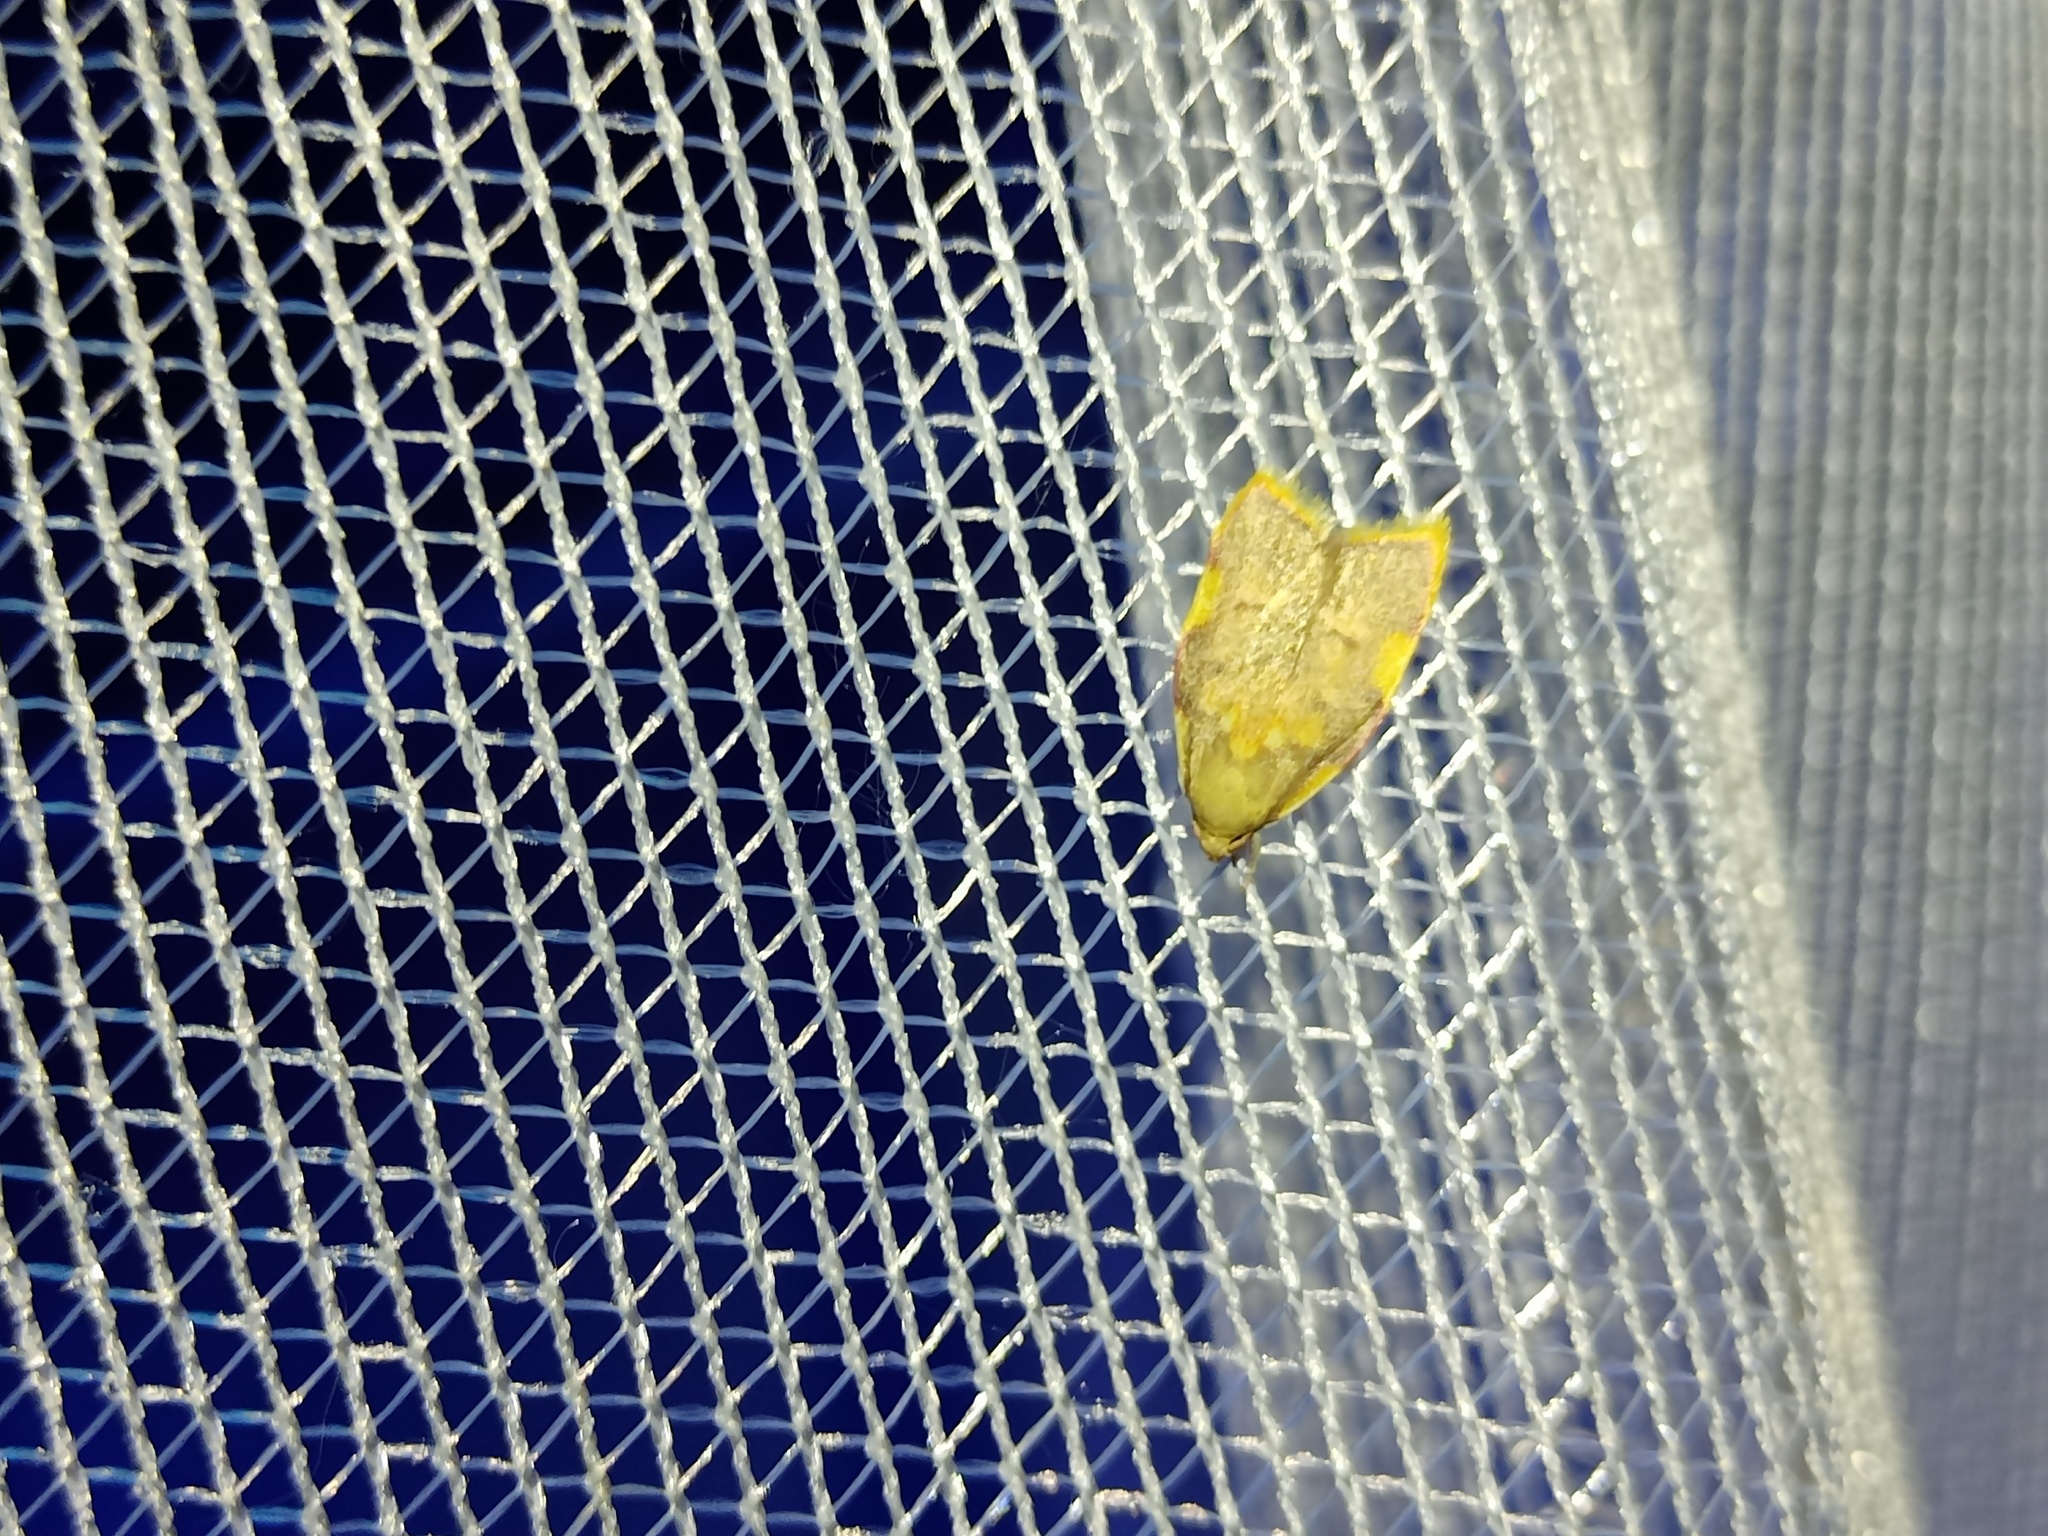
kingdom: Animalia
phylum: Arthropoda
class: Insecta
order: Lepidoptera
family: Peleopodidae
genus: Carcina
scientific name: Carcina quercana
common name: Moth
